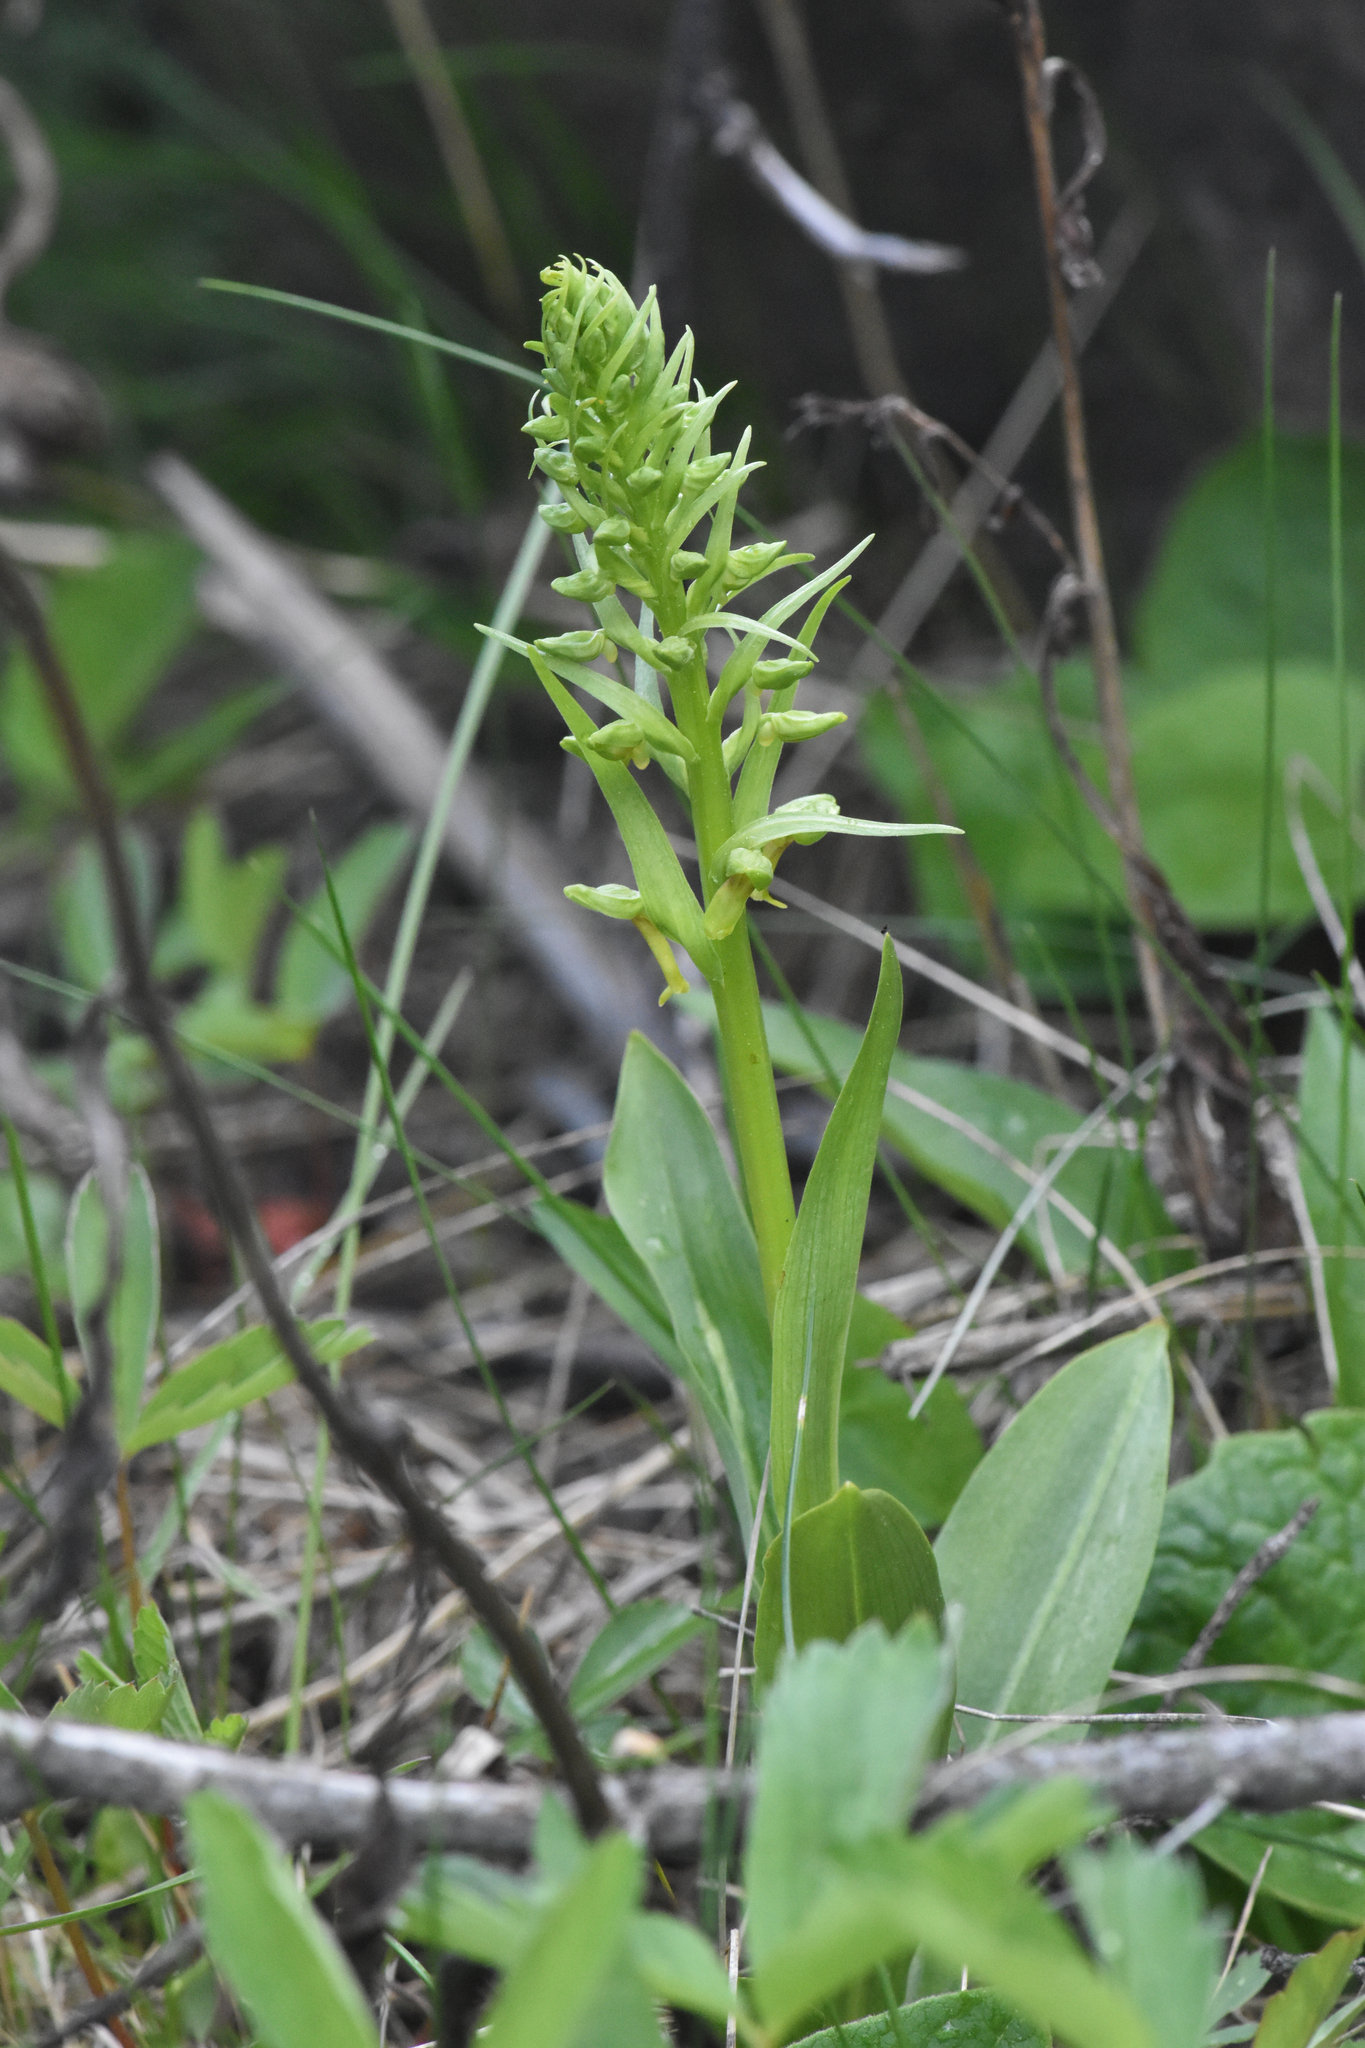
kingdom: Plantae
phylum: Tracheophyta
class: Liliopsida
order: Asparagales
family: Orchidaceae
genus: Dactylorhiza
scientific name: Dactylorhiza viridis
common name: Longbract frog orchid
